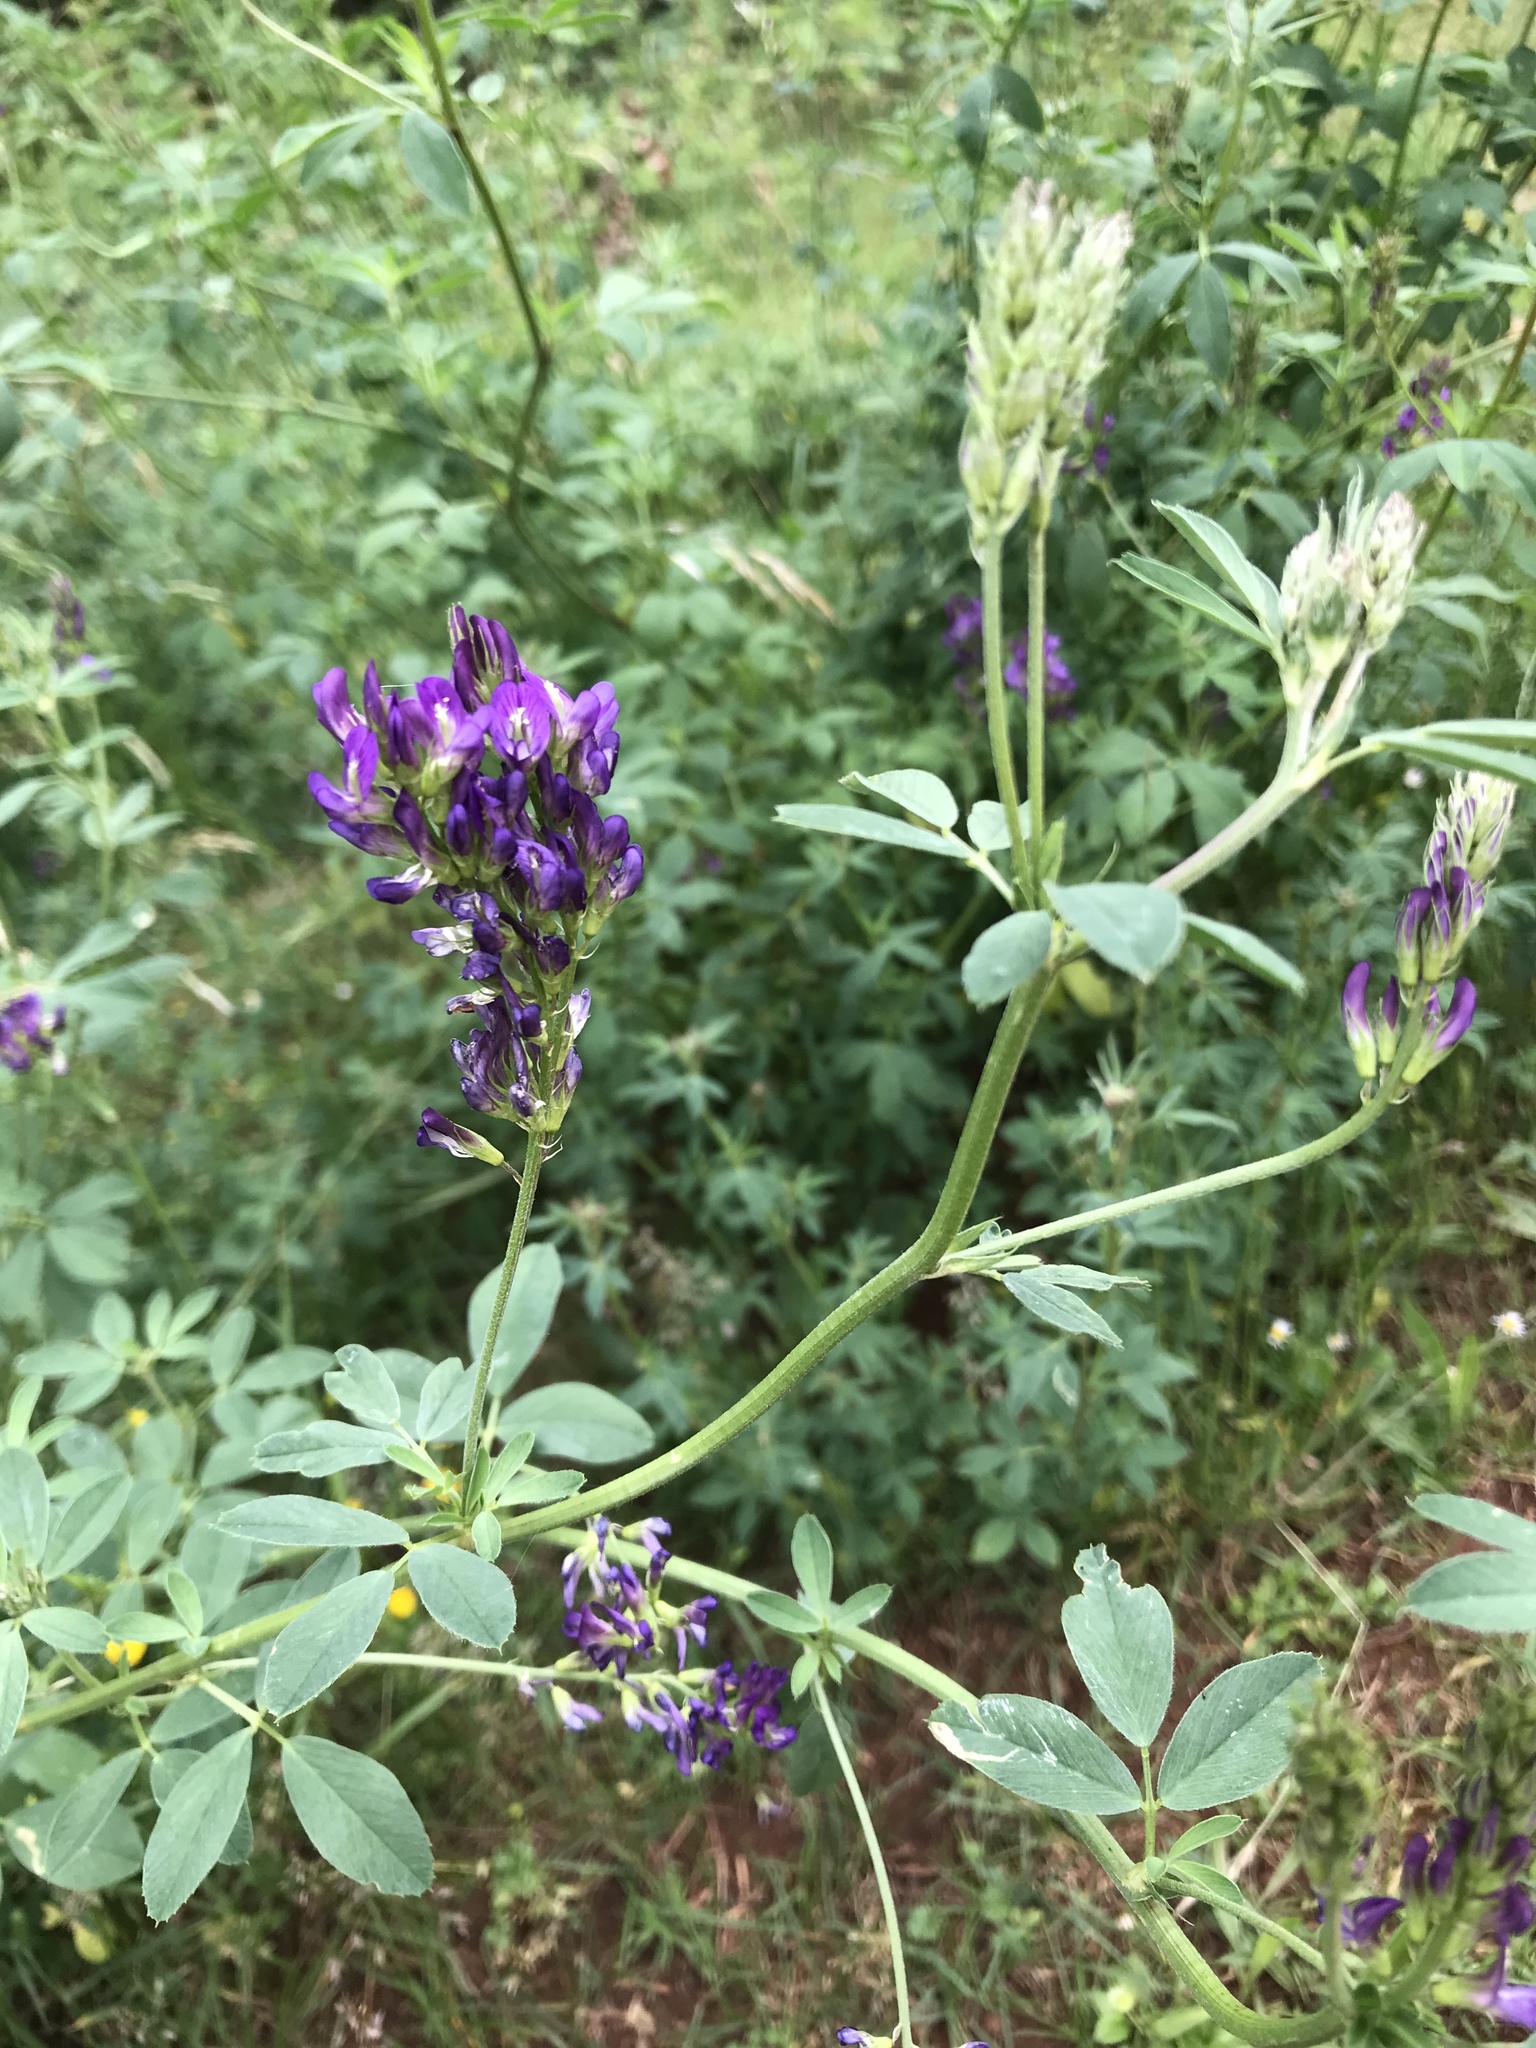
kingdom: Plantae
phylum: Tracheophyta
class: Magnoliopsida
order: Fabales
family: Fabaceae
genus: Medicago
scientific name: Medicago sativa
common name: Alfalfa
